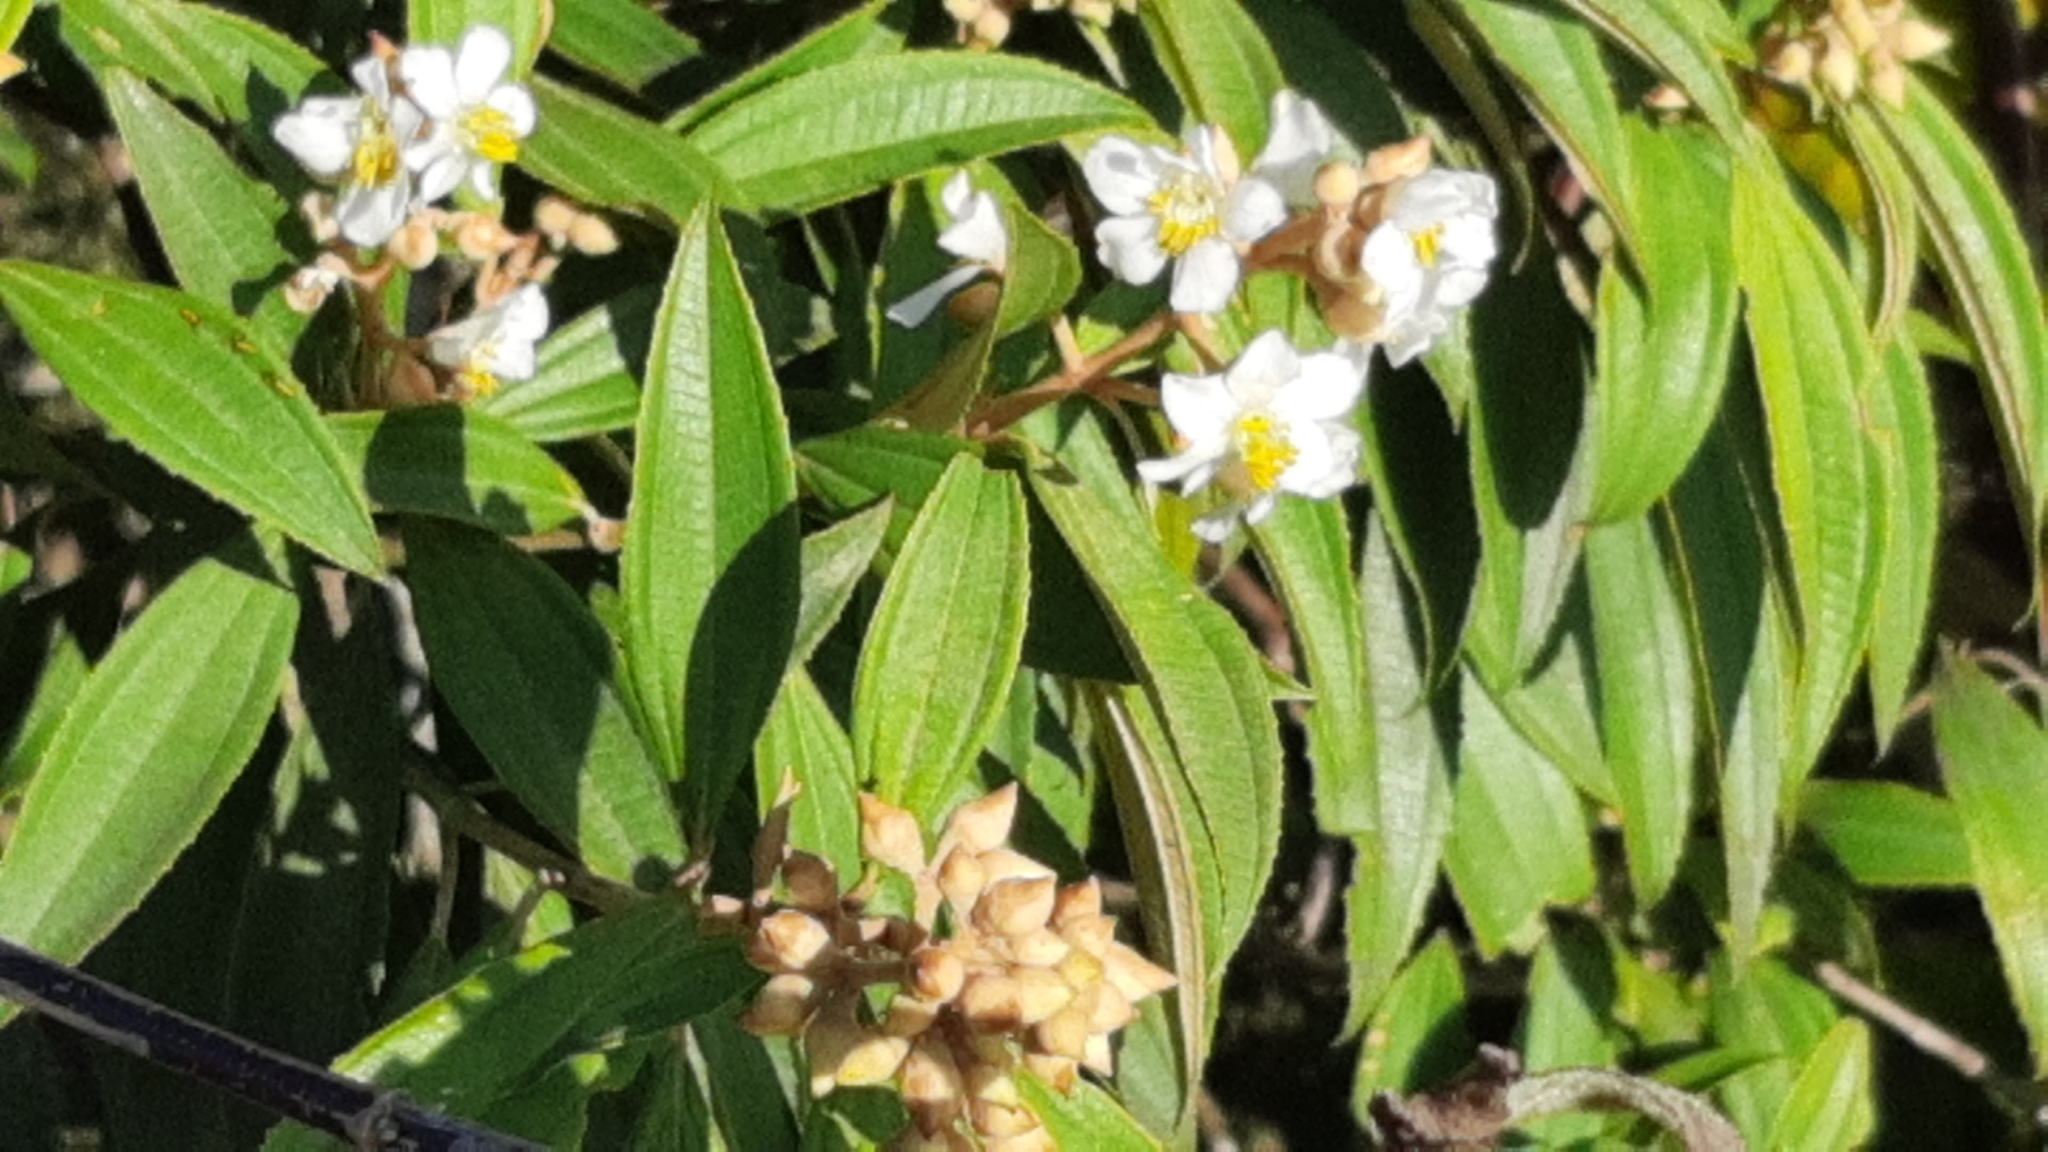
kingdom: Plantae
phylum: Tracheophyta
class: Magnoliopsida
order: Myrtales
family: Melastomataceae
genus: Miconia
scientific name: Miconia xalapensis
